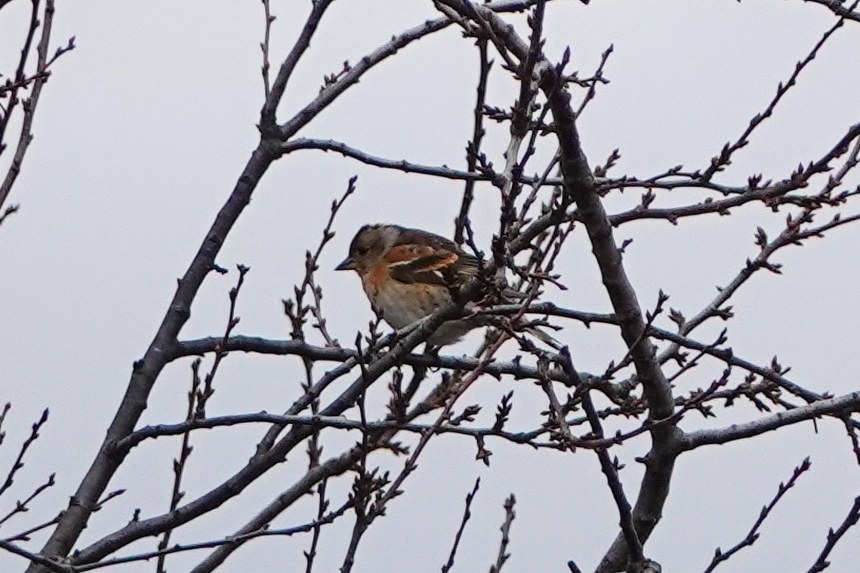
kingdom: Animalia
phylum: Chordata
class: Aves
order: Passeriformes
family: Fringillidae
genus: Fringilla
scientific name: Fringilla montifringilla
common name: Brambling
